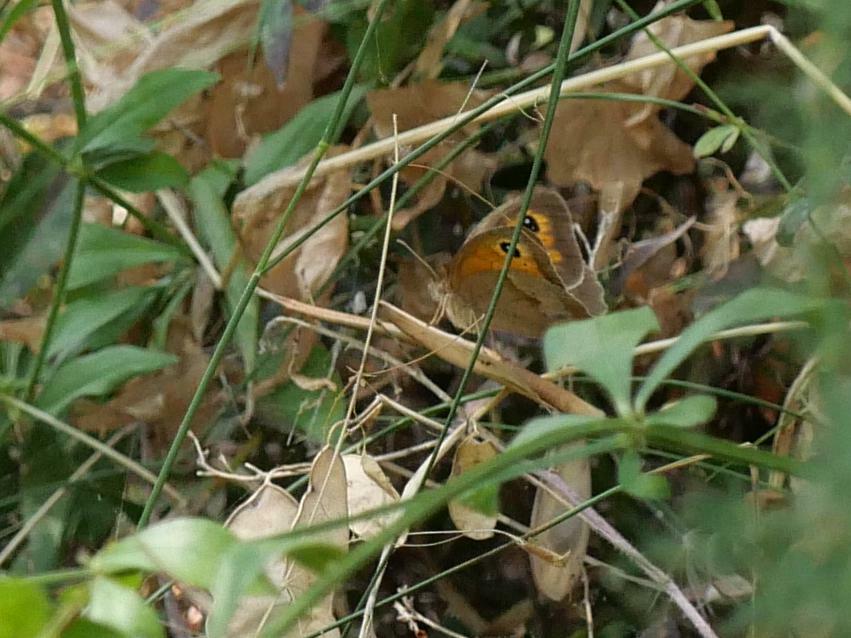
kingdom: Animalia
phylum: Arthropoda
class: Insecta
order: Lepidoptera
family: Nymphalidae
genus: Maniola
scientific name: Maniola jurtina
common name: Meadow brown
